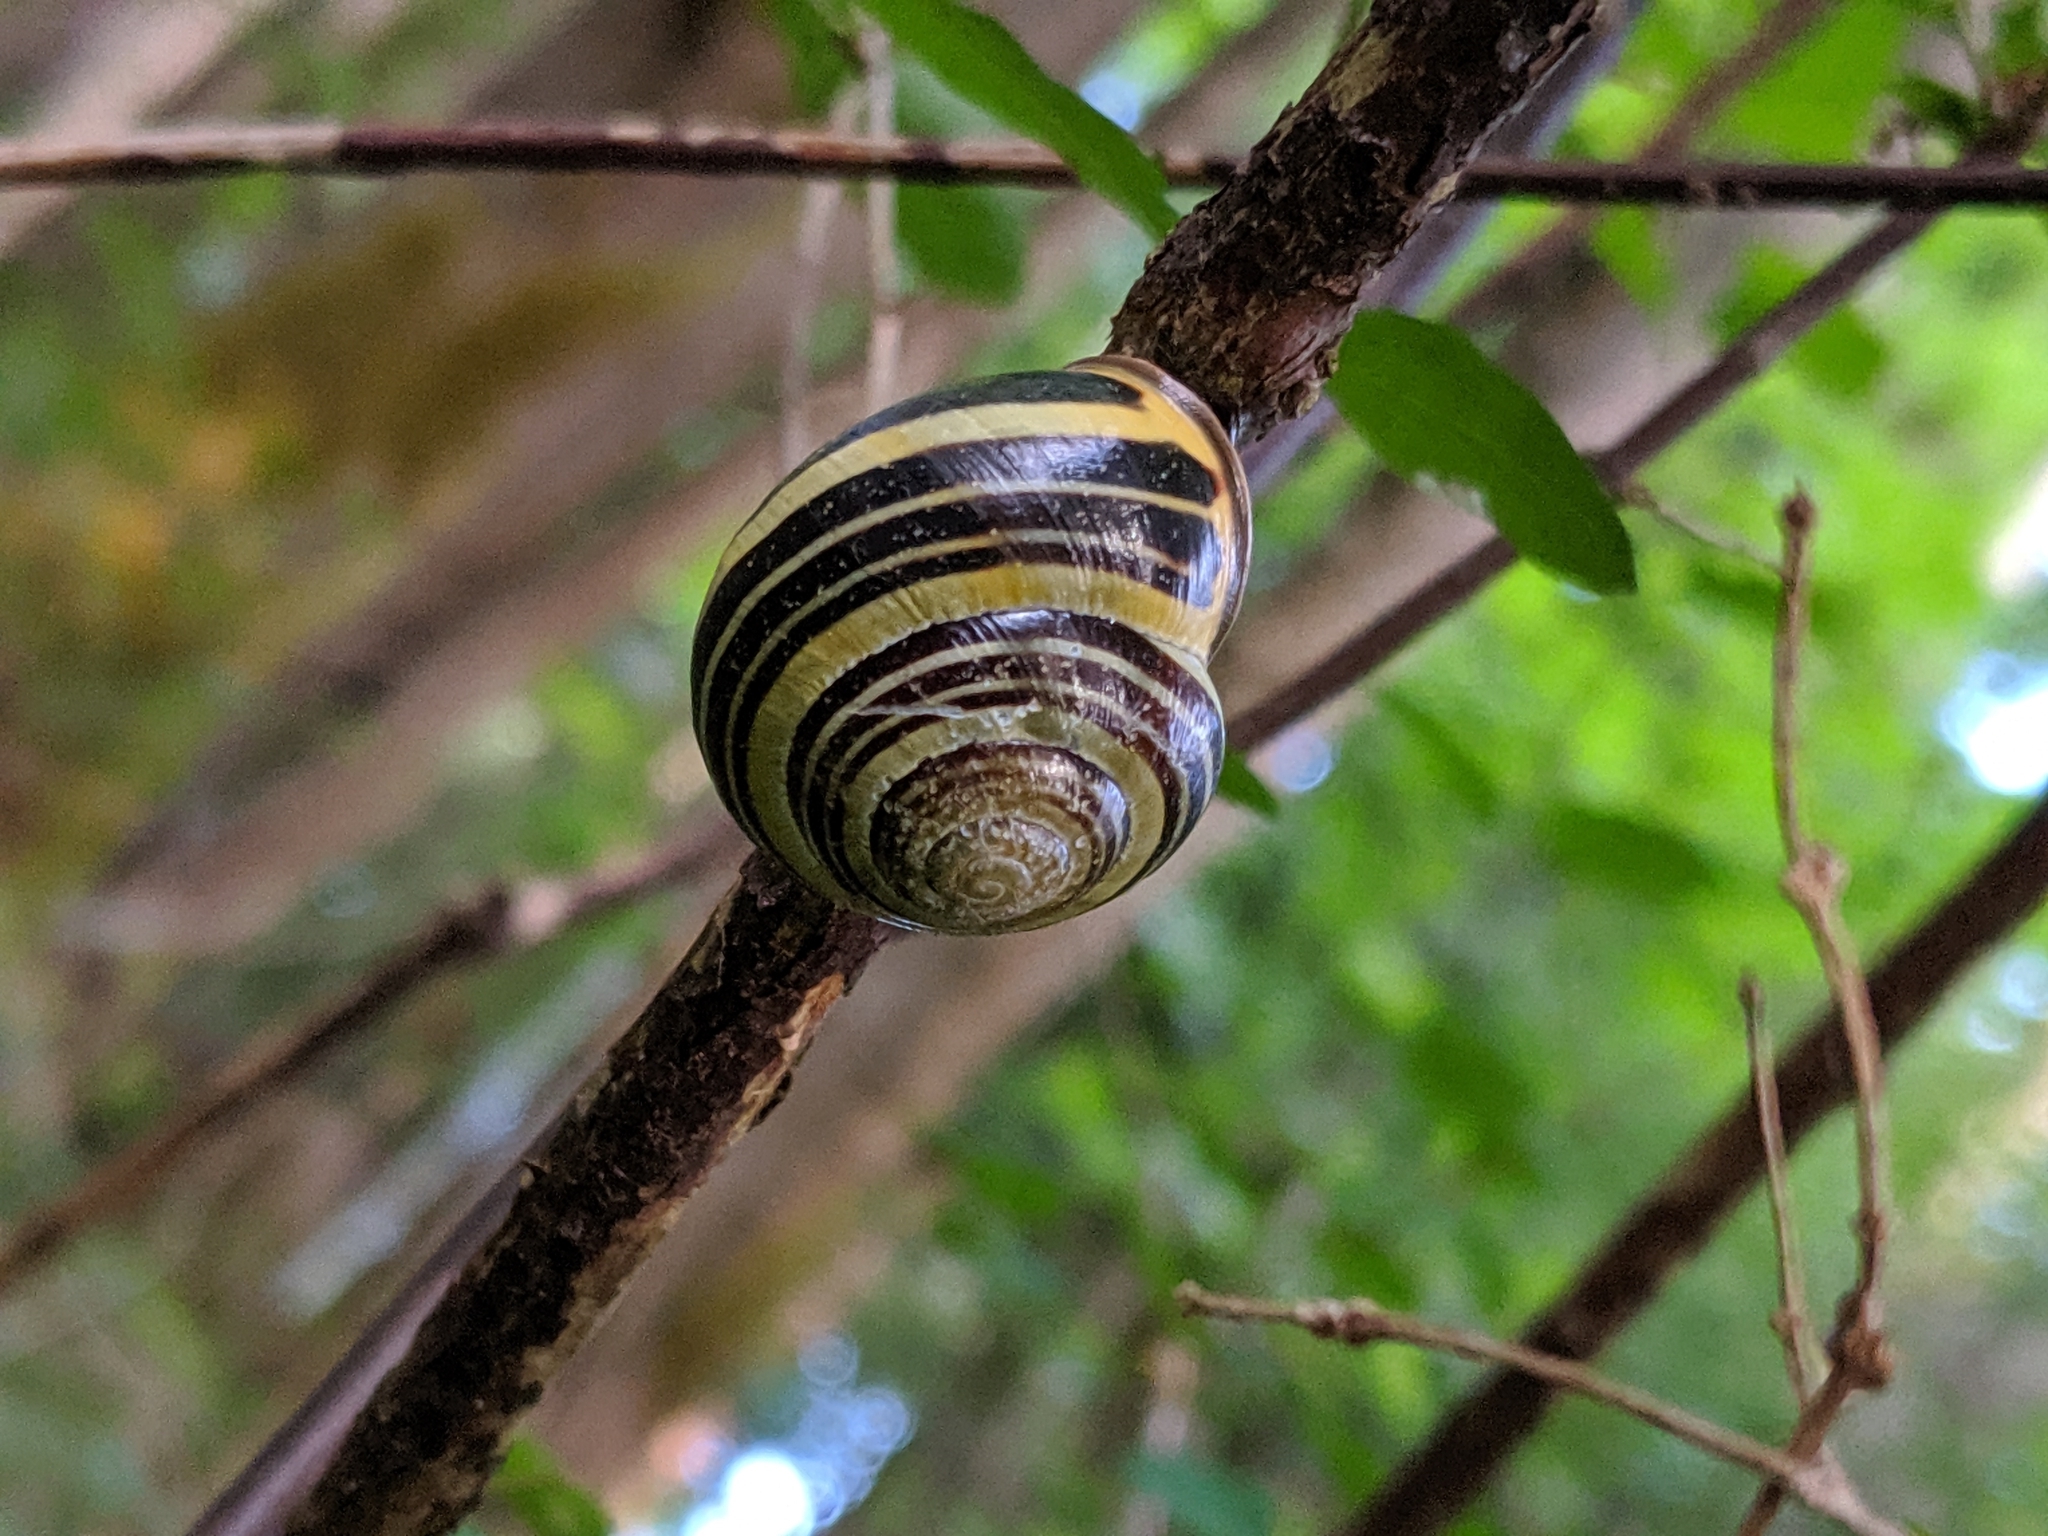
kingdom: Animalia
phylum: Mollusca
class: Gastropoda
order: Stylommatophora
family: Helicidae
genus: Cepaea
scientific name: Cepaea nemoralis
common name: Grovesnail
